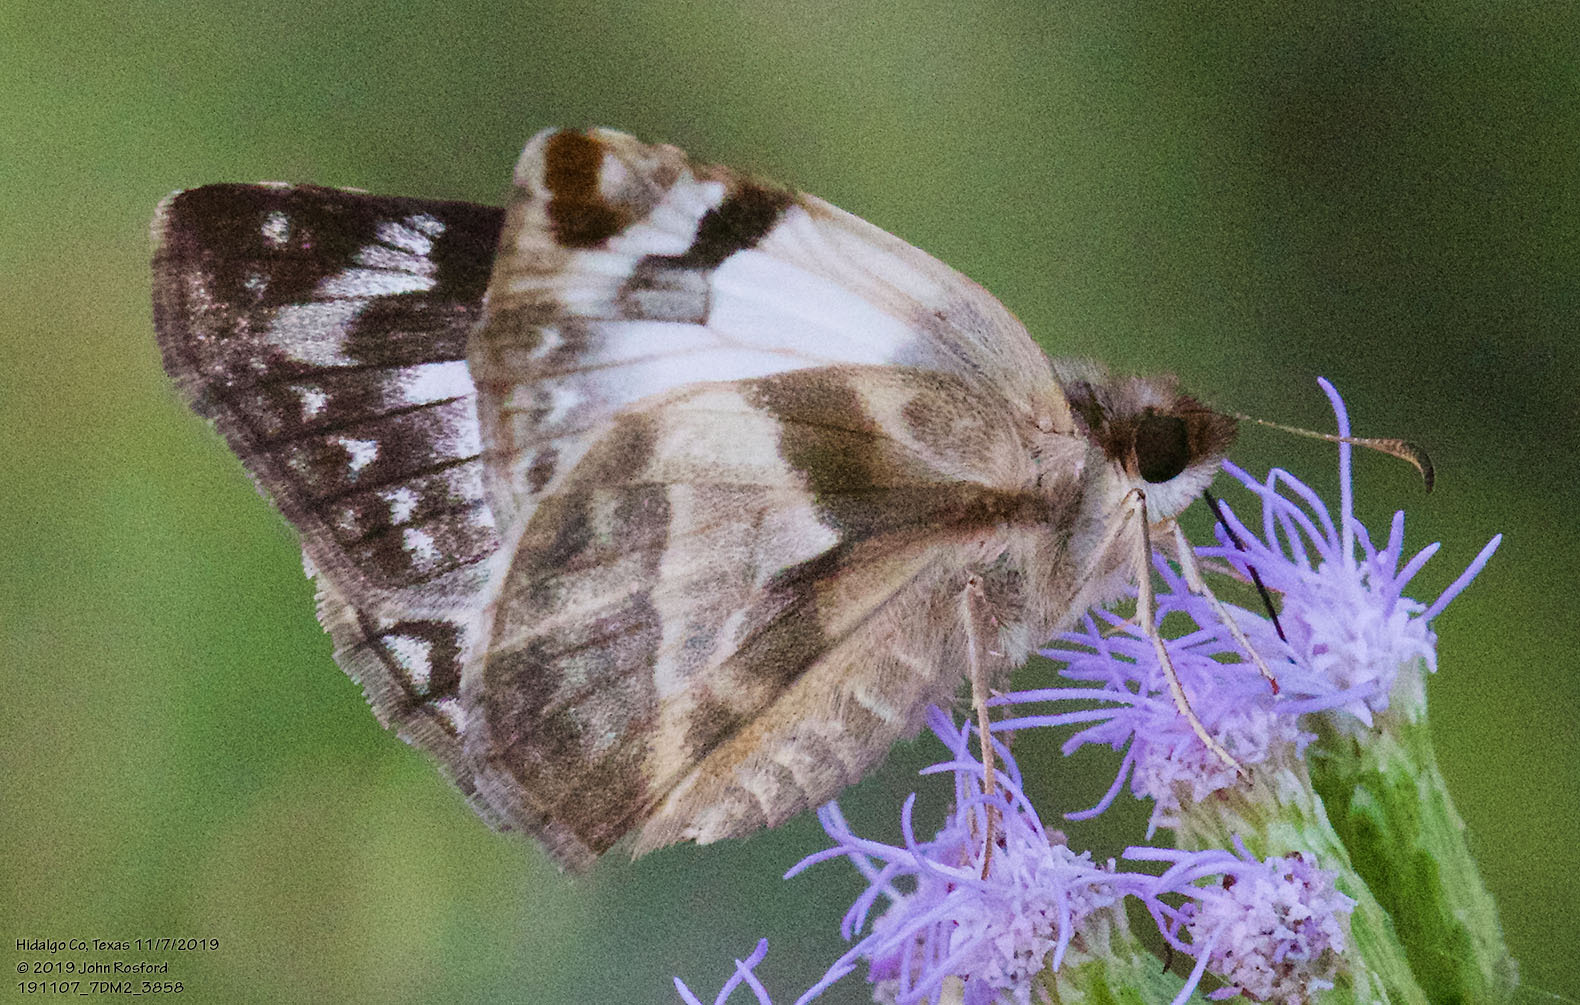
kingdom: Animalia
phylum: Arthropoda
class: Insecta
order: Lepidoptera
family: Hesperiidae
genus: Heliopetes
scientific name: Heliopetes laviana
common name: Laviana white-skipper
